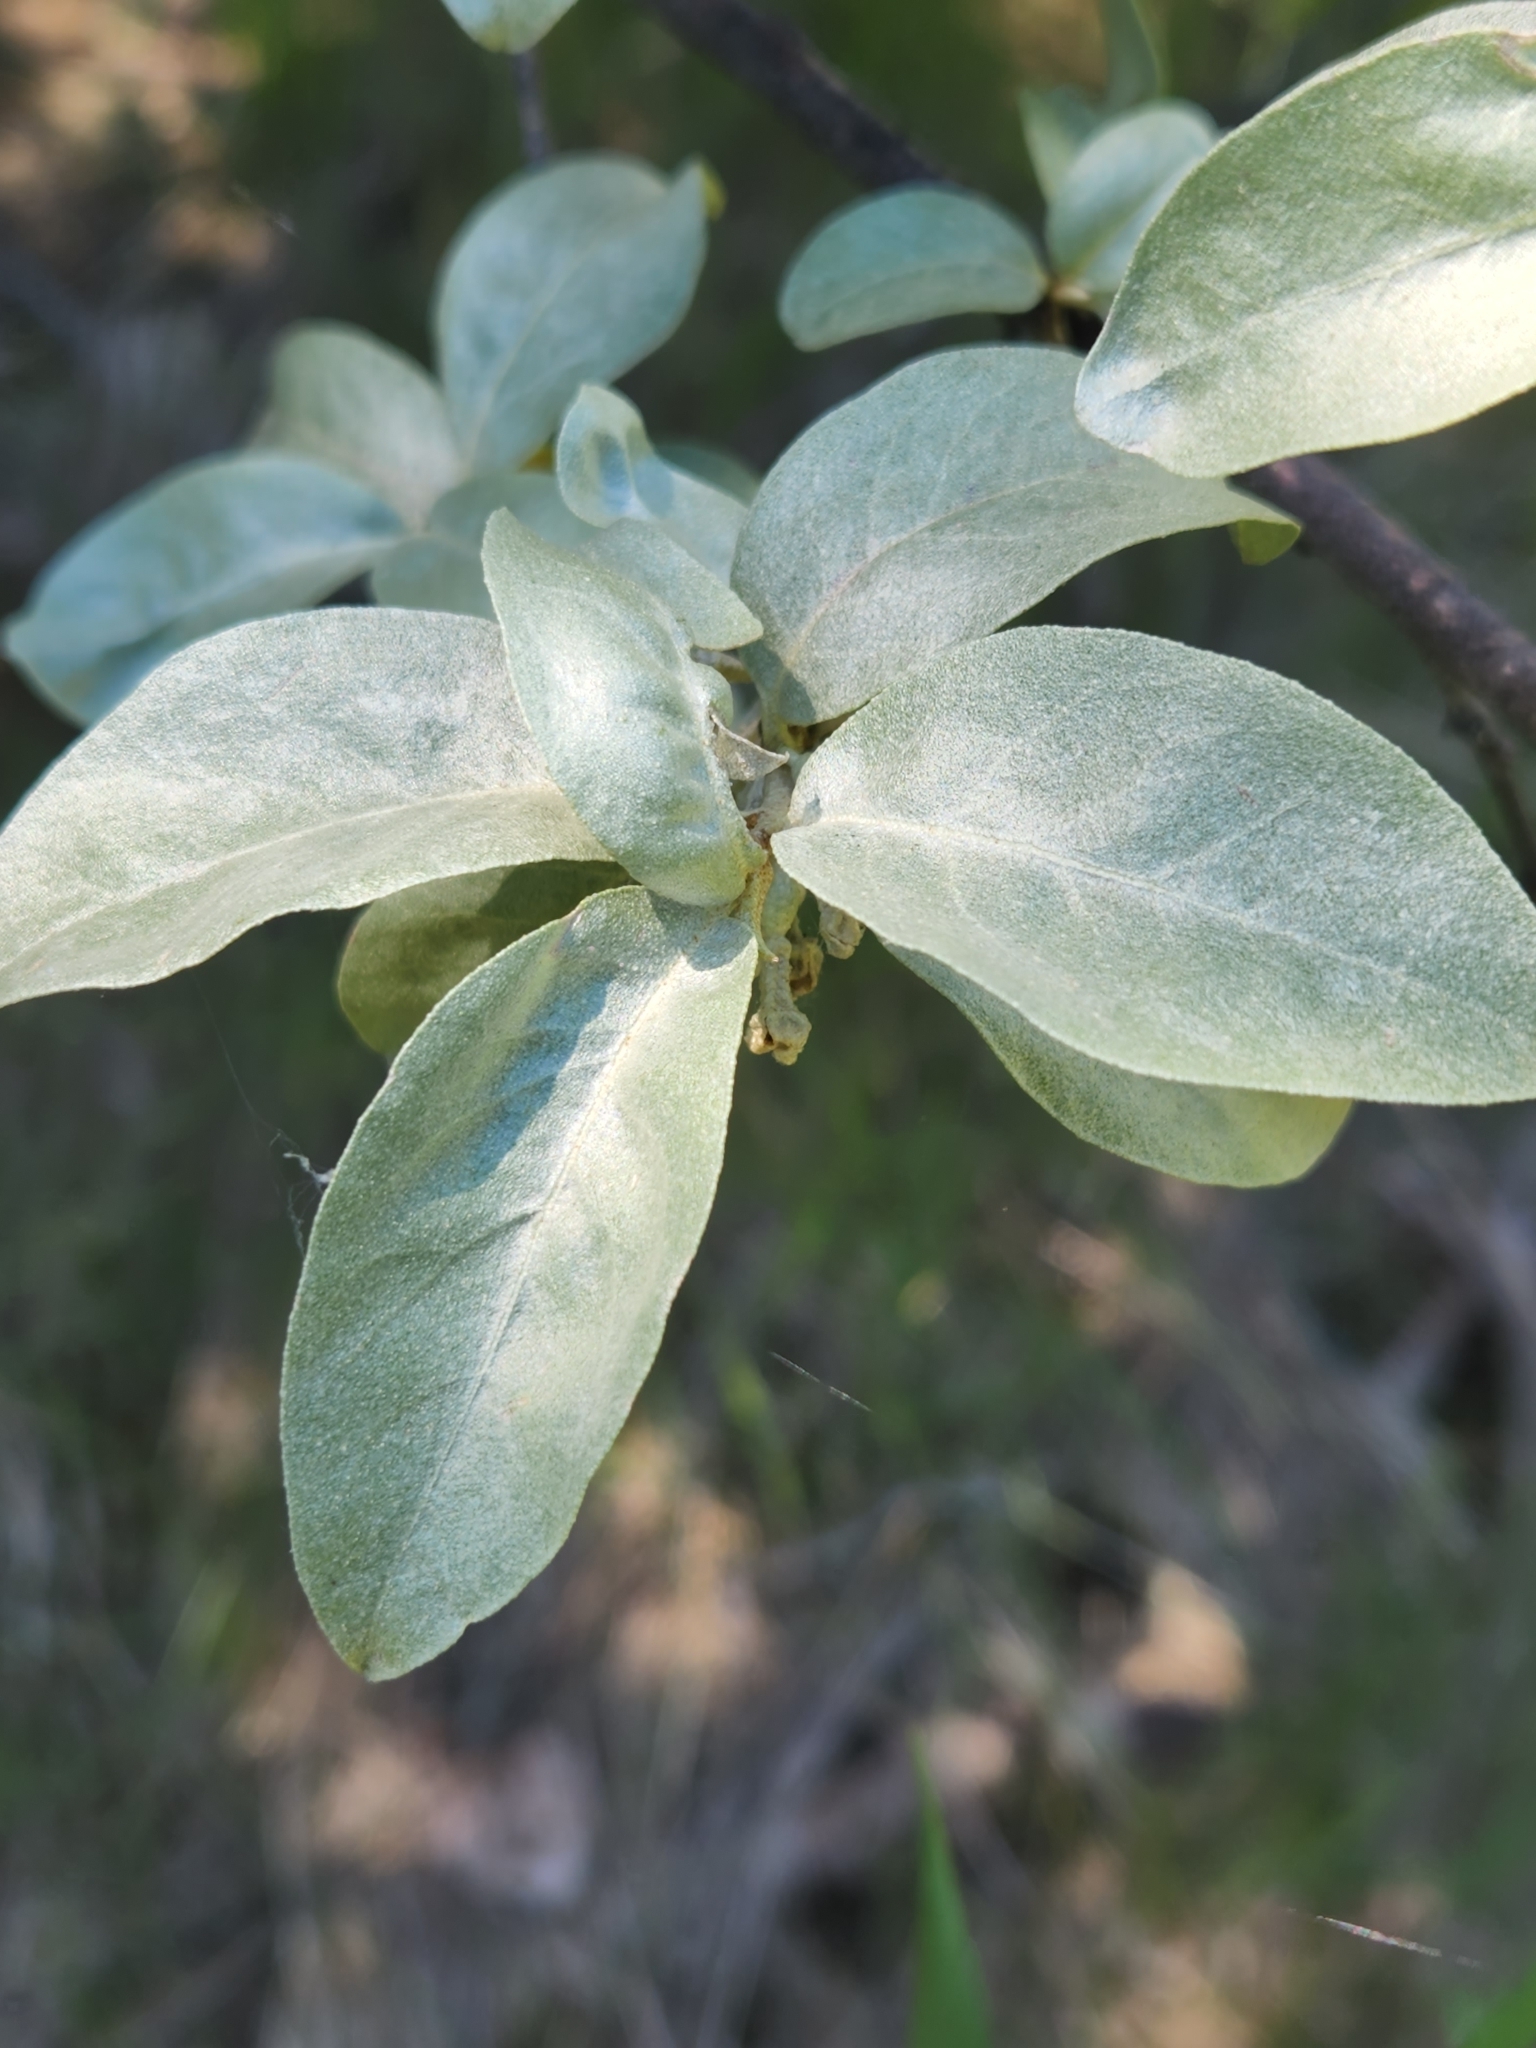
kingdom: Plantae
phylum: Tracheophyta
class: Magnoliopsida
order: Rosales
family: Elaeagnaceae
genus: Elaeagnus
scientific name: Elaeagnus commutata
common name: Silverberry
